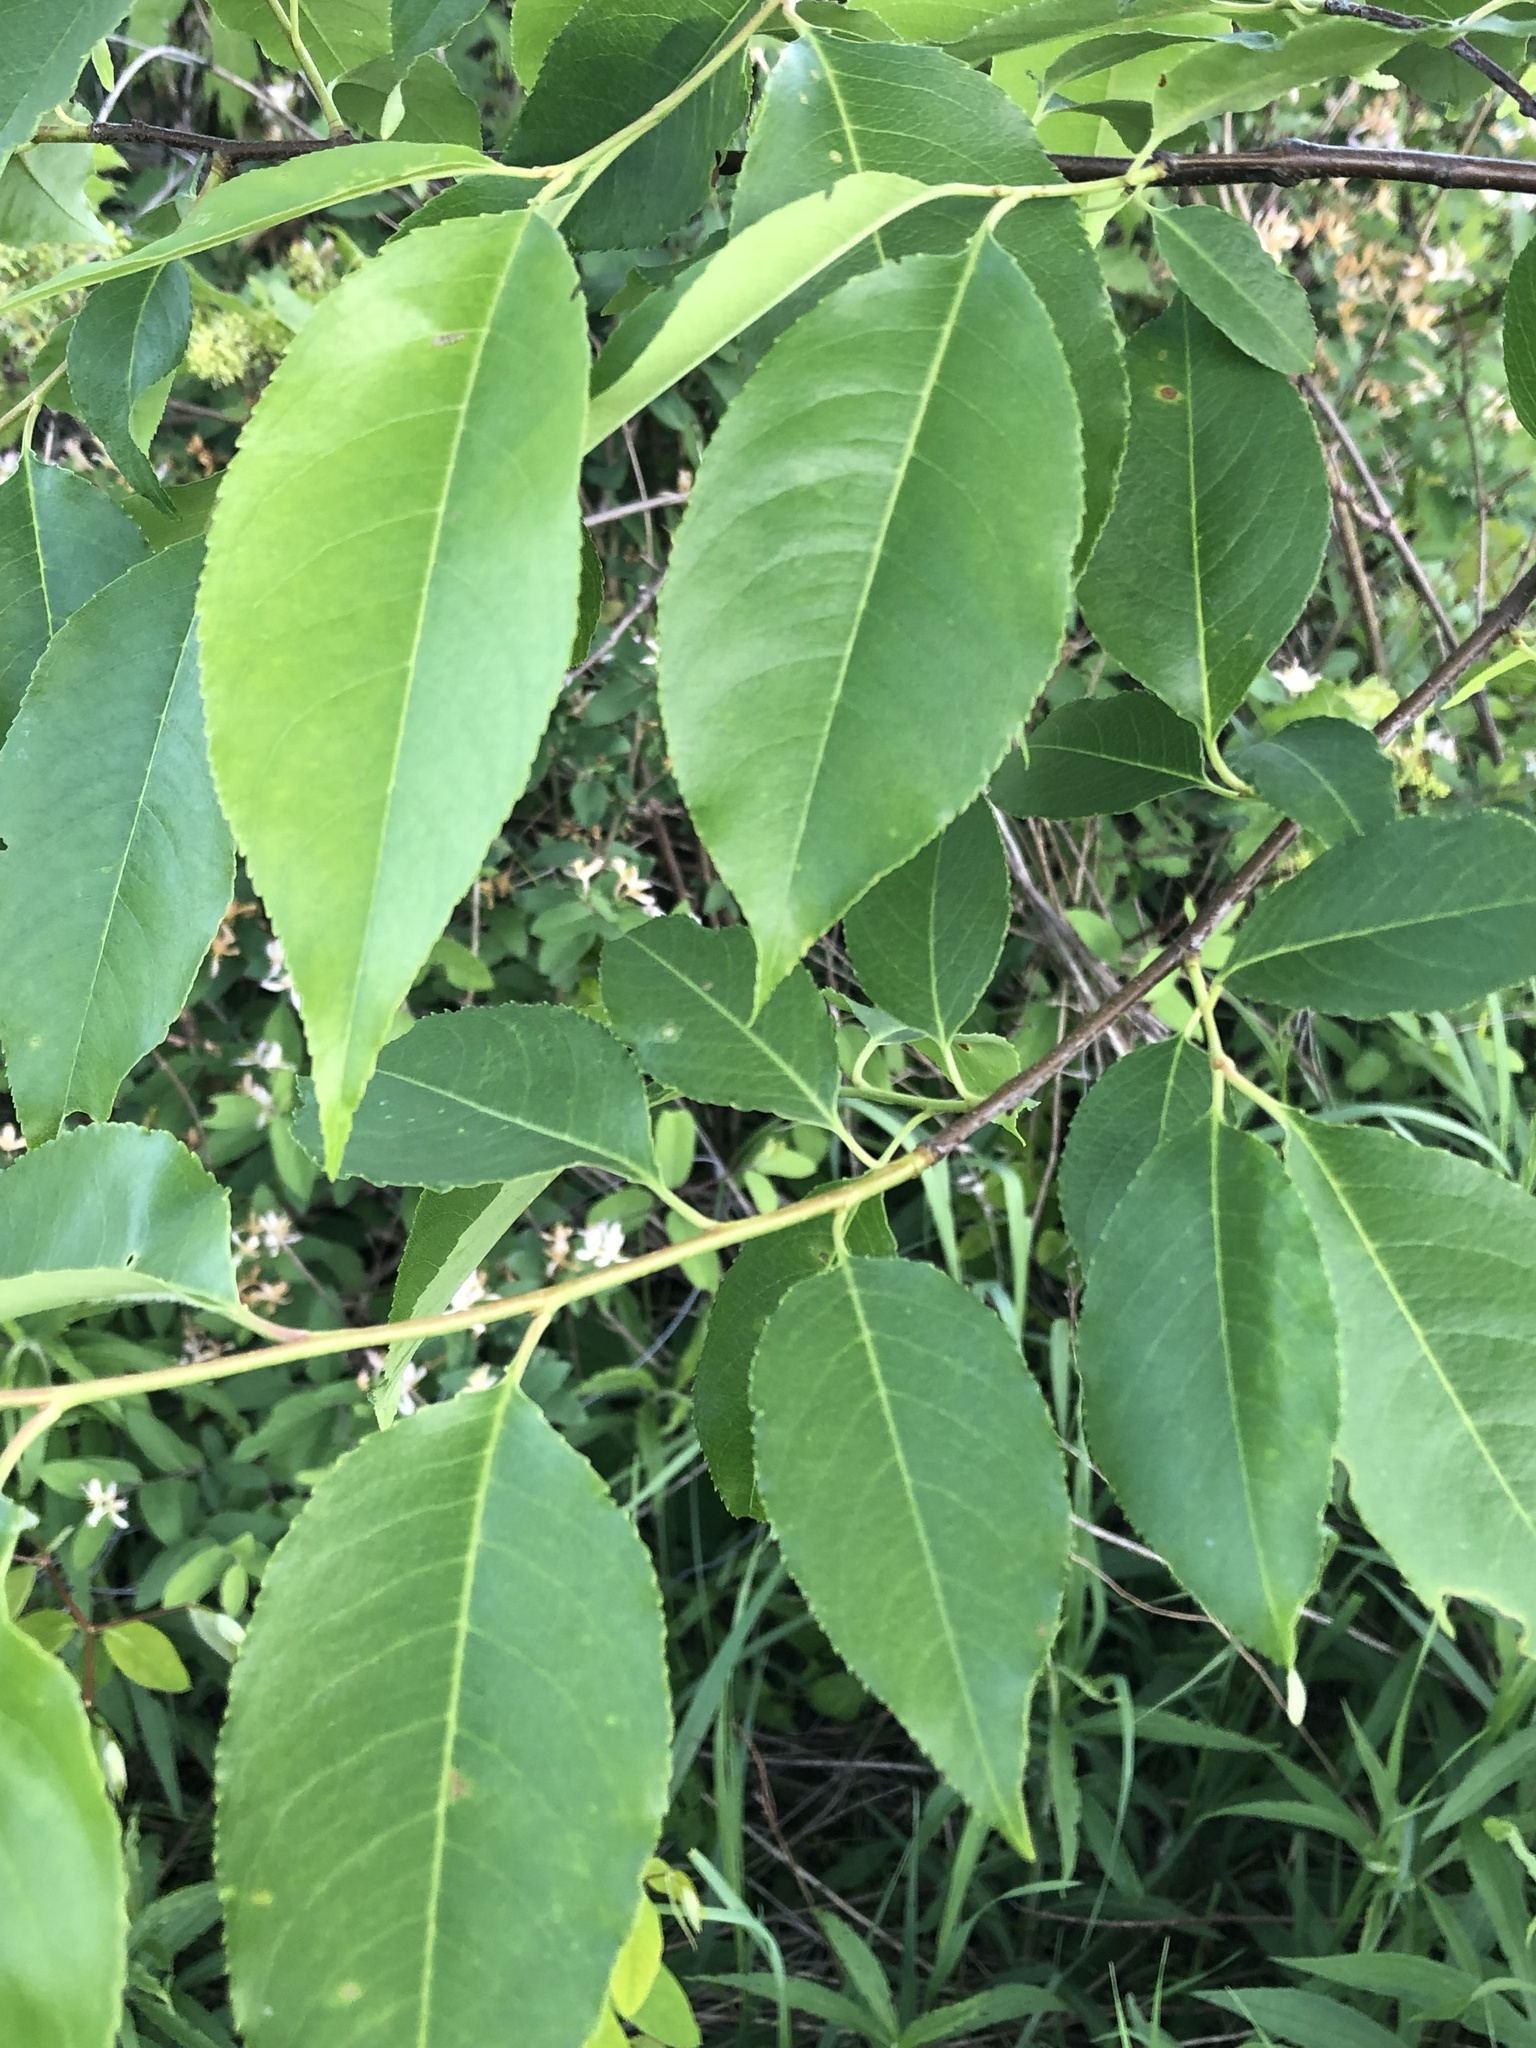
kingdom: Plantae
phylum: Tracheophyta
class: Magnoliopsida
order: Rosales
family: Rosaceae
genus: Prunus
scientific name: Prunus serotina
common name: Black cherry
